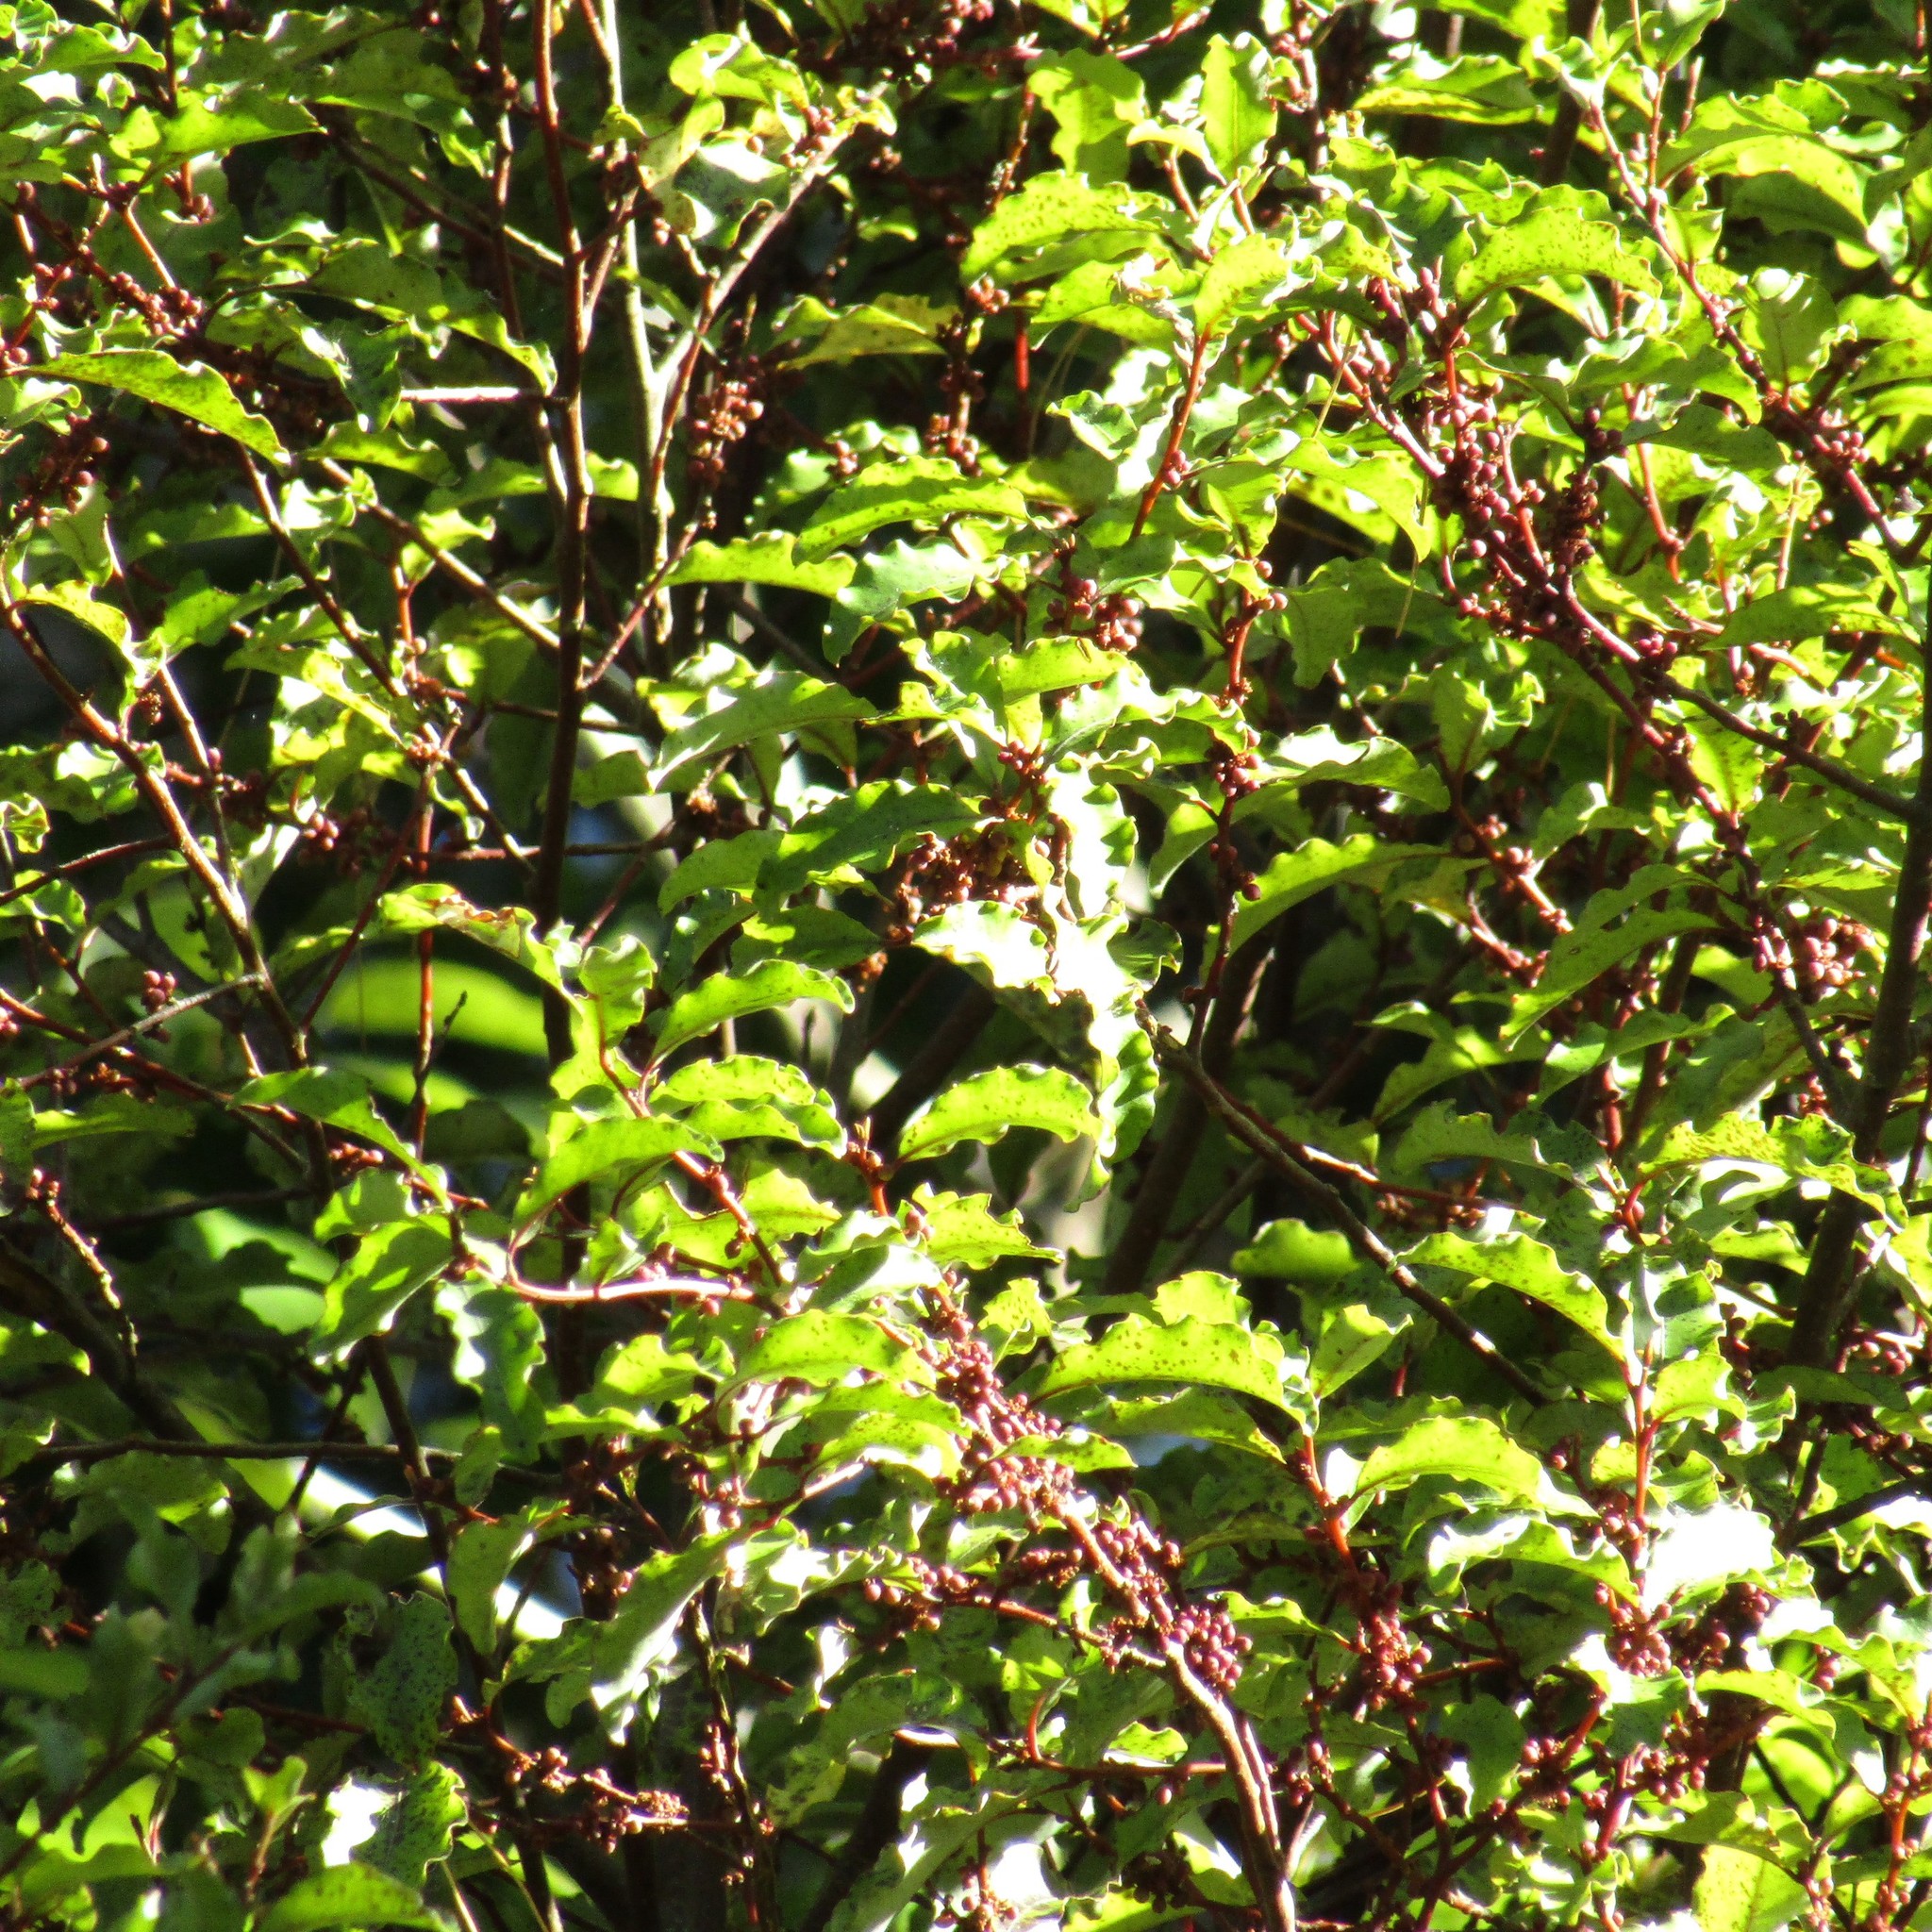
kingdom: Plantae
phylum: Tracheophyta
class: Magnoliopsida
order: Ericales
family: Primulaceae
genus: Myrsine
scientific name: Myrsine australis
